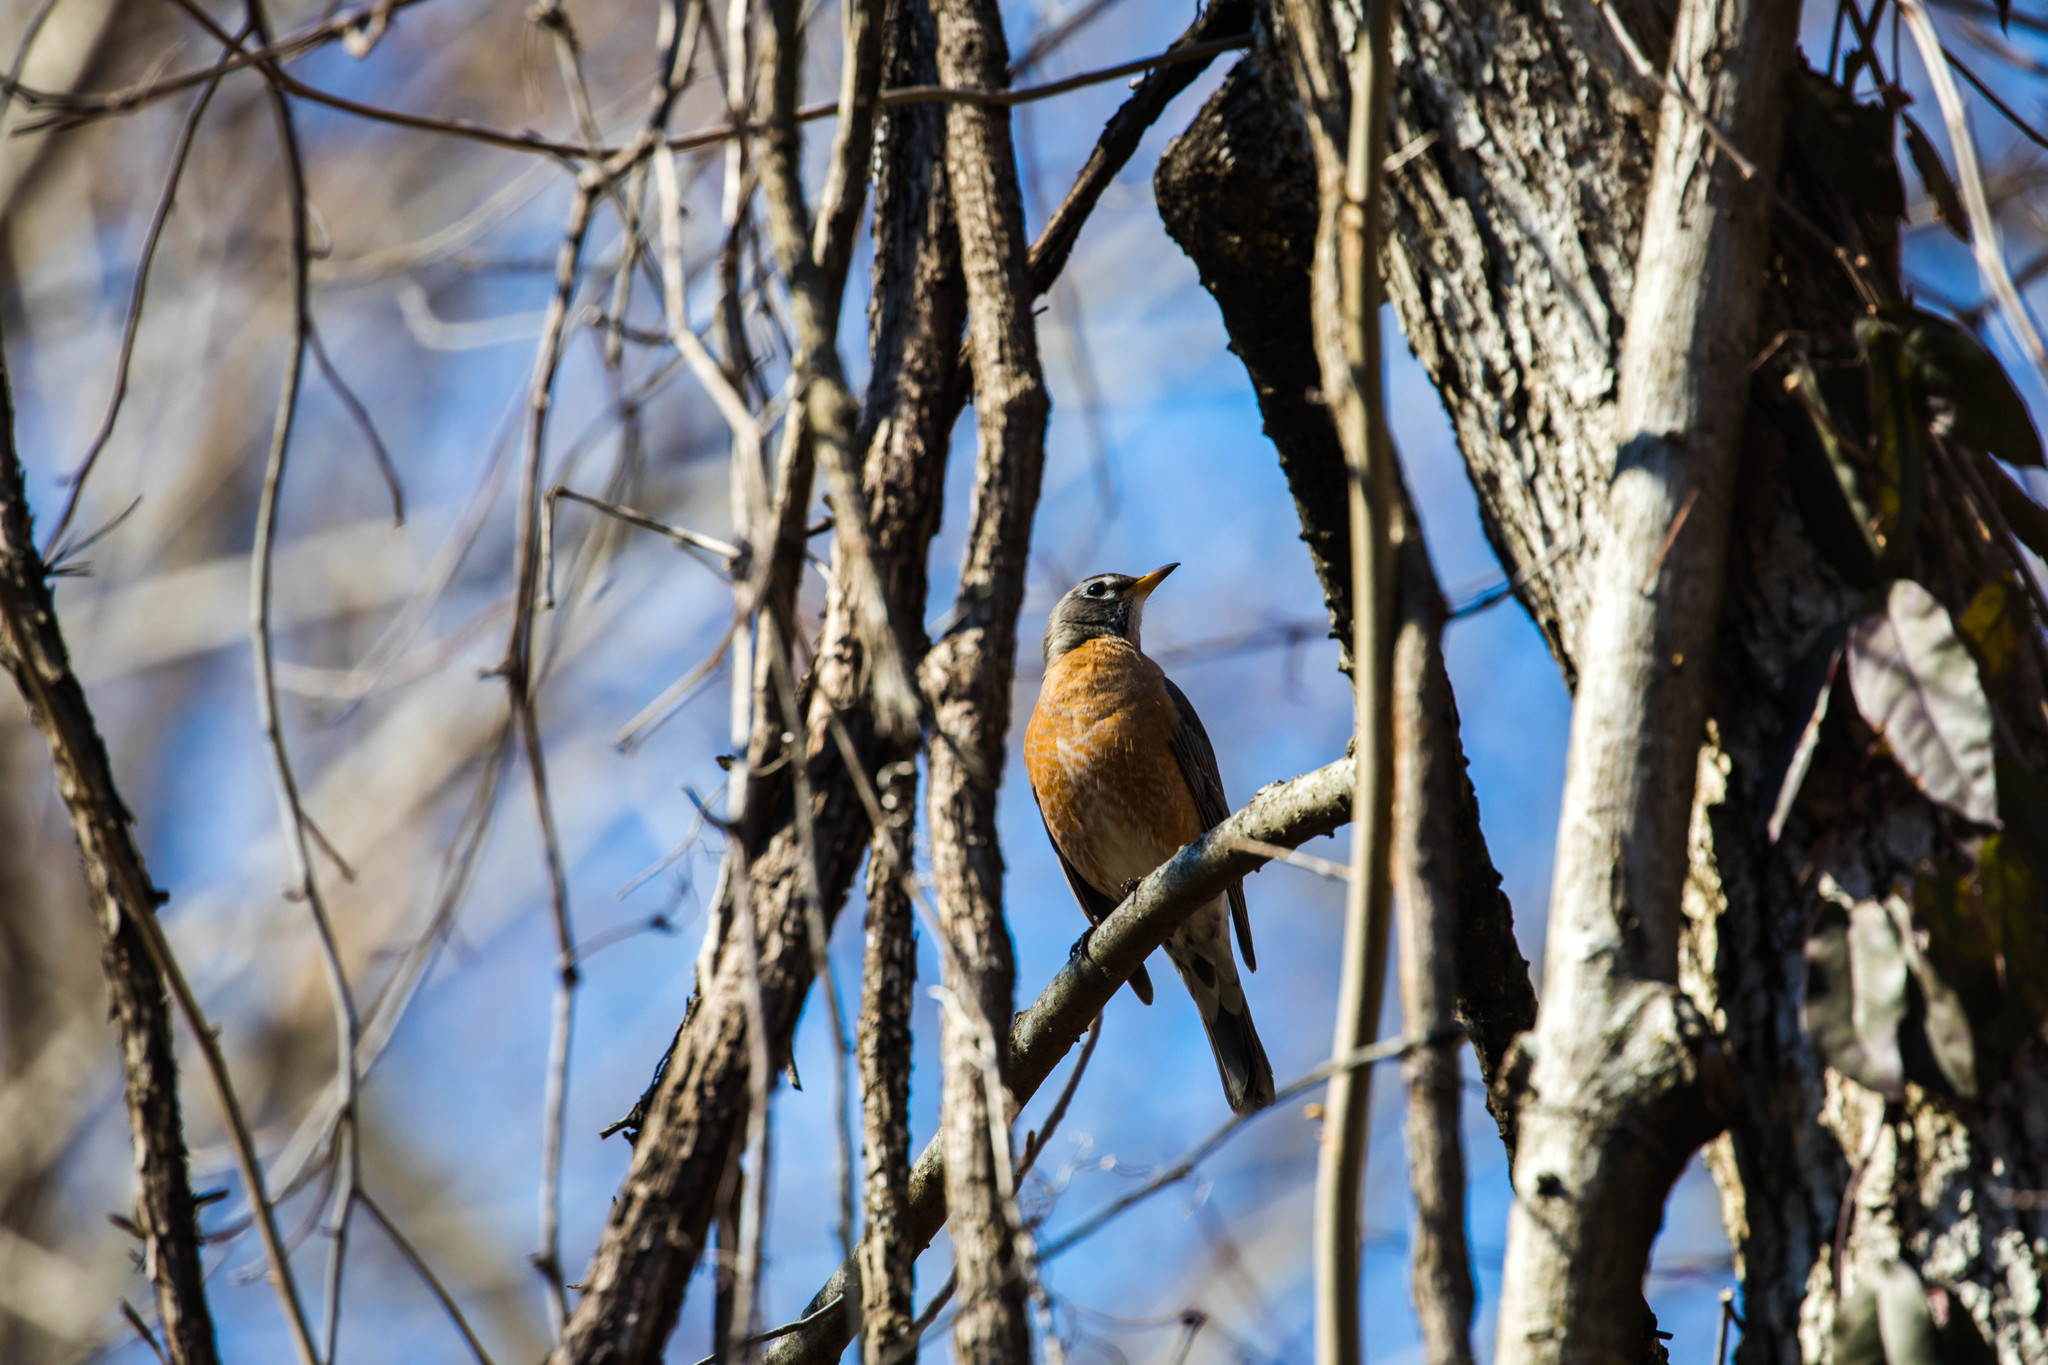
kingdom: Animalia
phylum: Chordata
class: Aves
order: Passeriformes
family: Turdidae
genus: Turdus
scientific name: Turdus migratorius
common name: American robin
